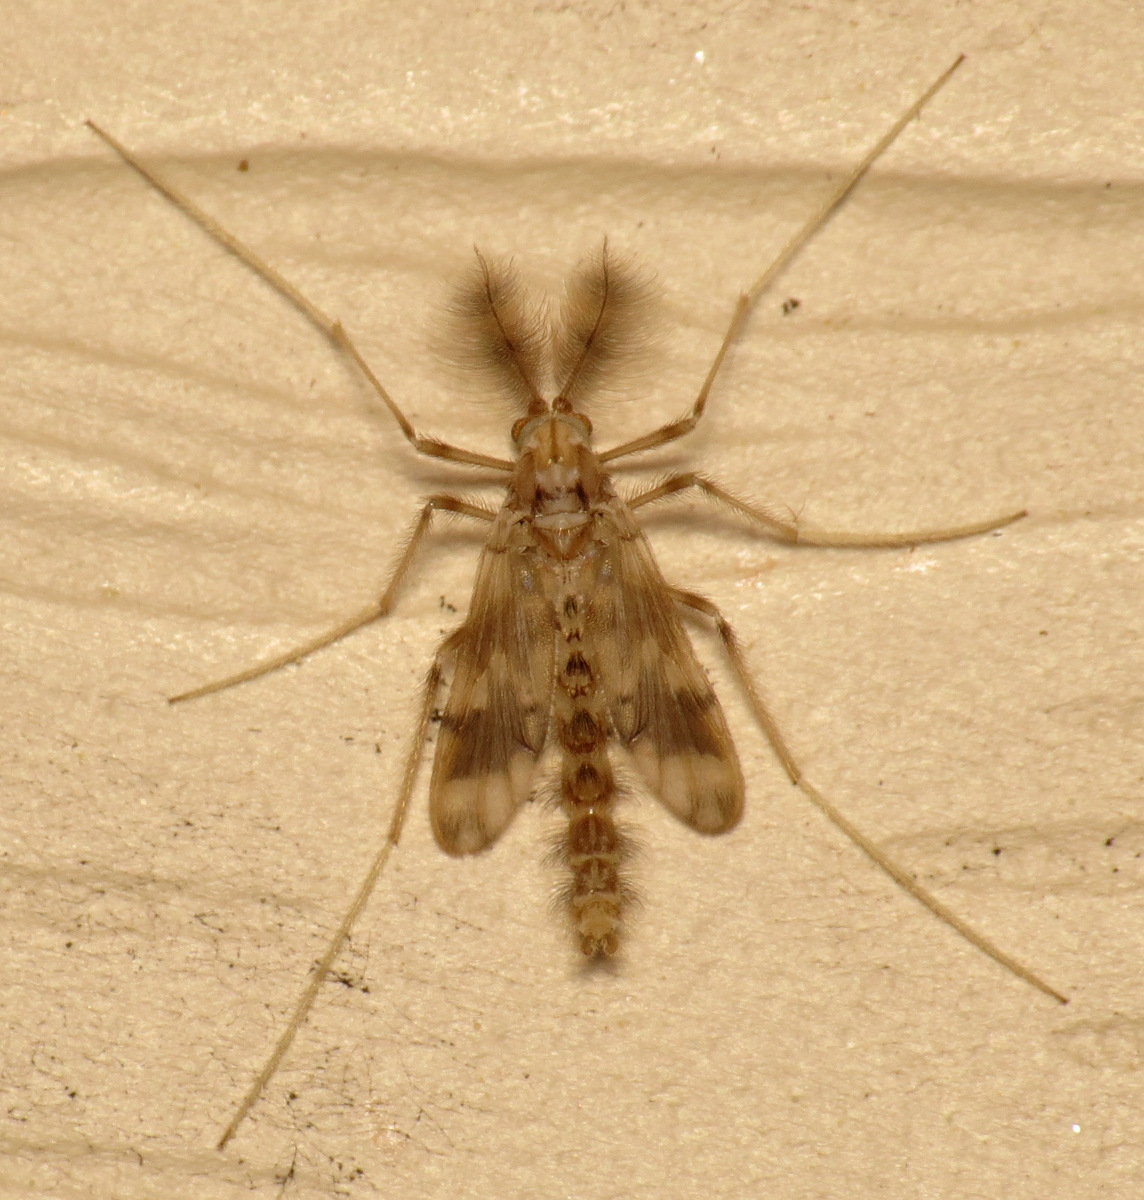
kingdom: Animalia
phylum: Arthropoda
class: Insecta
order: Diptera
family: Chironomidae
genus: Apsectrotanypus
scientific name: Apsectrotanypus johnsoni
